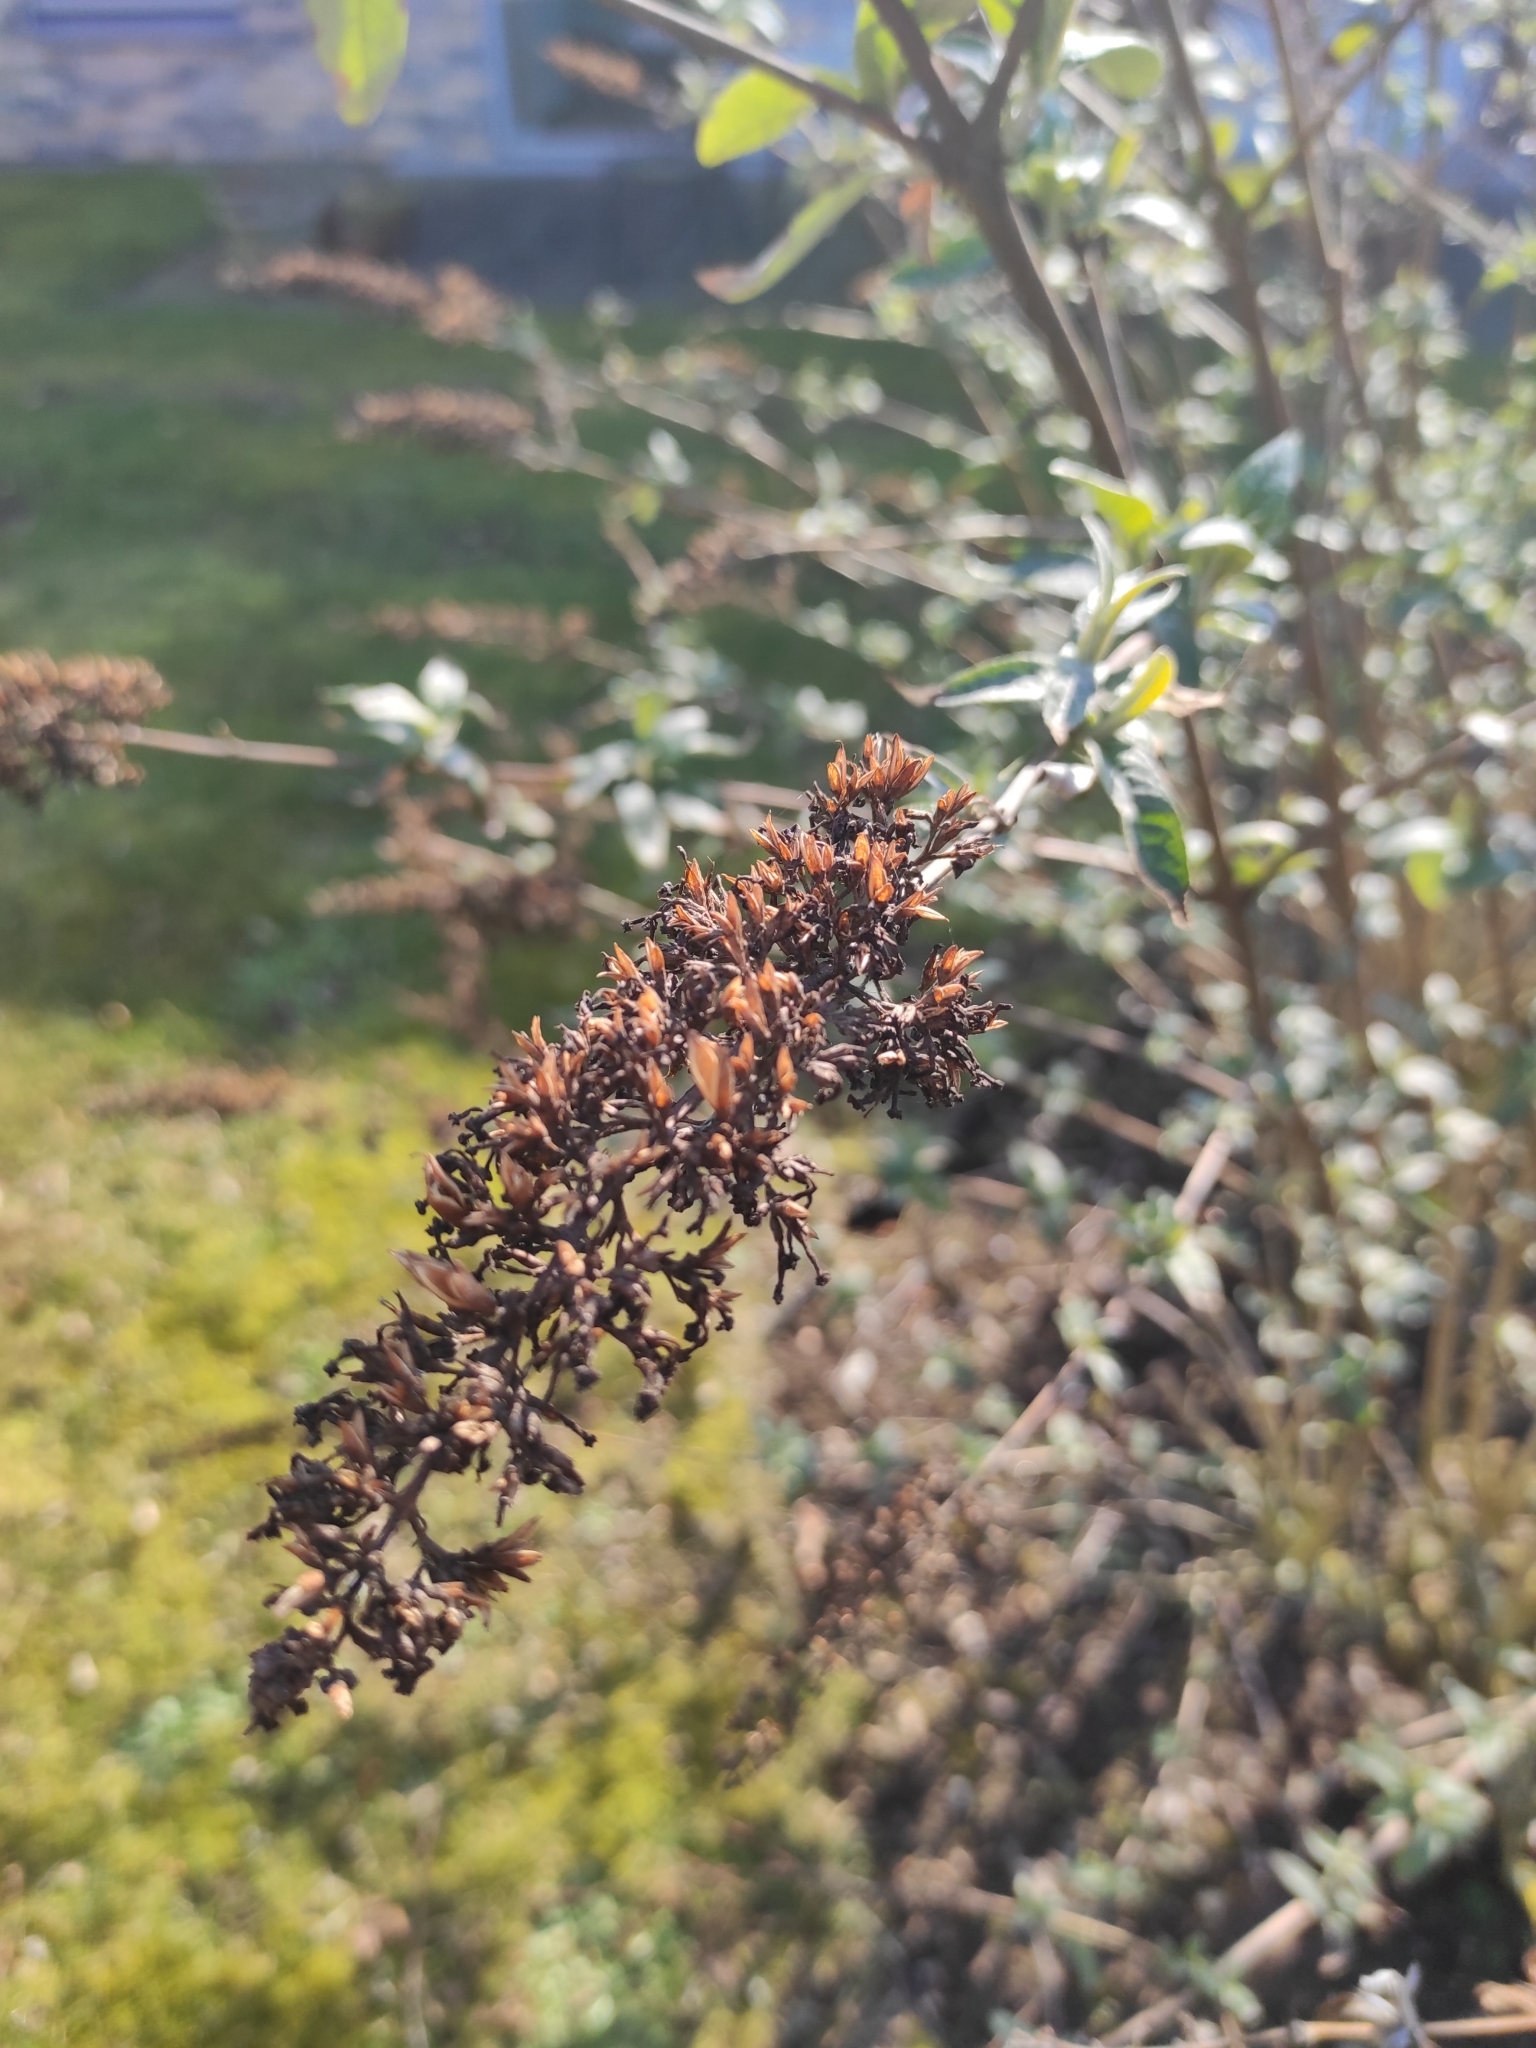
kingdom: Plantae
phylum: Tracheophyta
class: Magnoliopsida
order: Lamiales
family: Scrophulariaceae
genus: Buddleja
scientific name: Buddleja davidii
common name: Butterfly-bush
